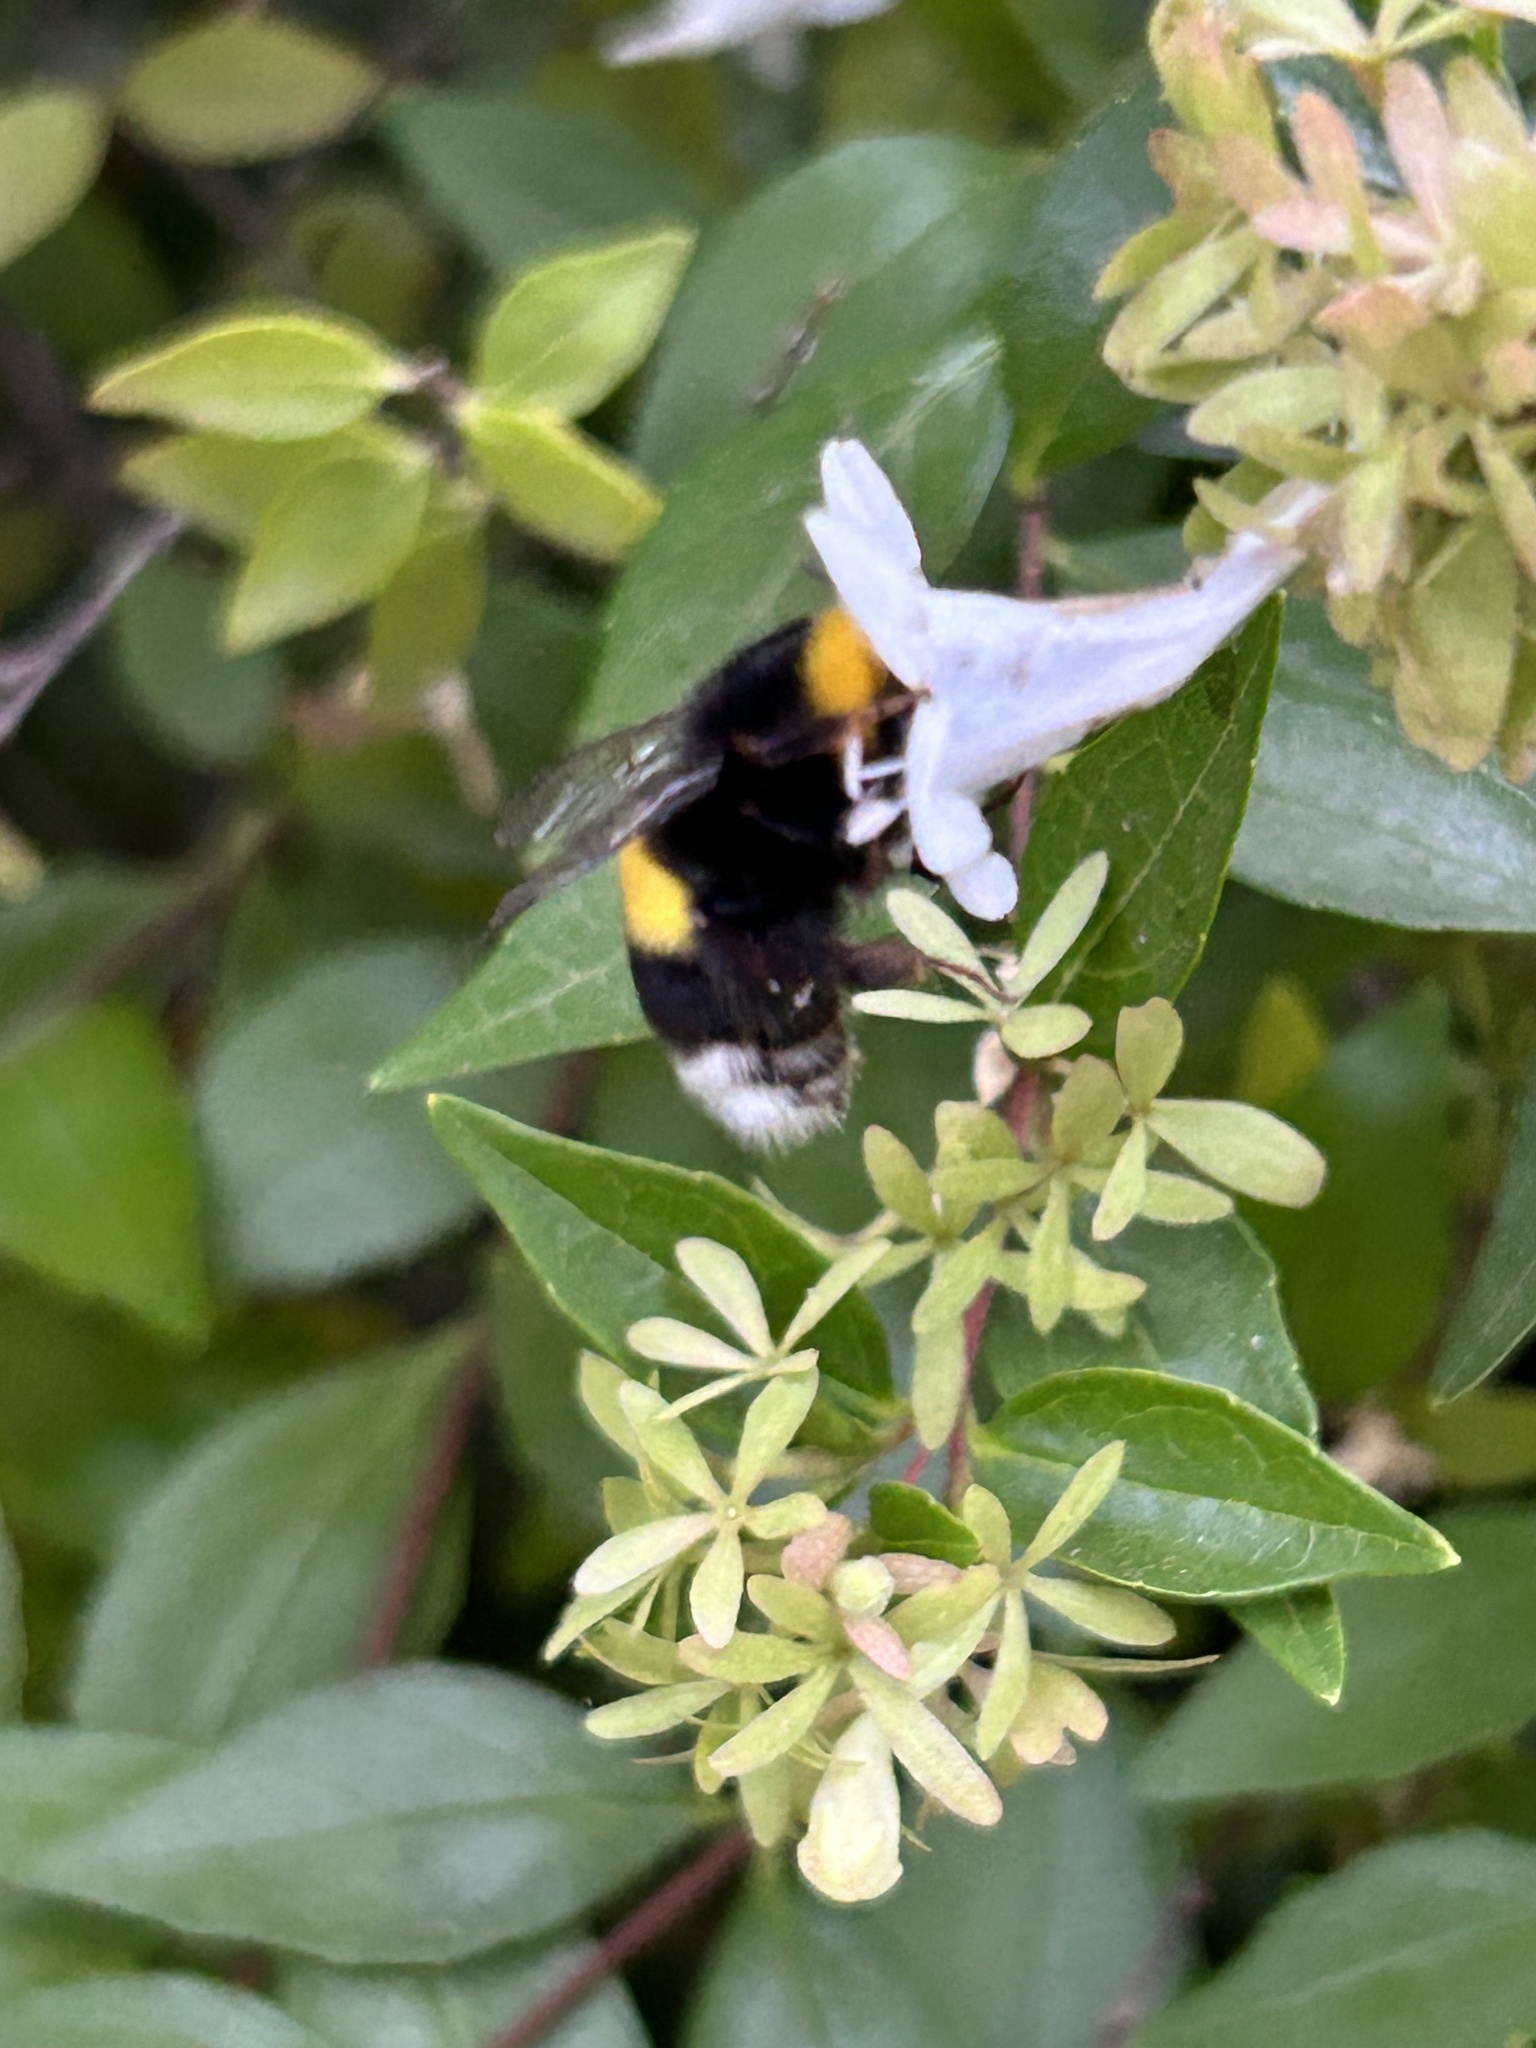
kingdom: Animalia
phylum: Arthropoda
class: Insecta
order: Hymenoptera
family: Apidae
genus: Bombus
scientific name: Bombus terrestris
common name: Buff-tailed bumblebee
